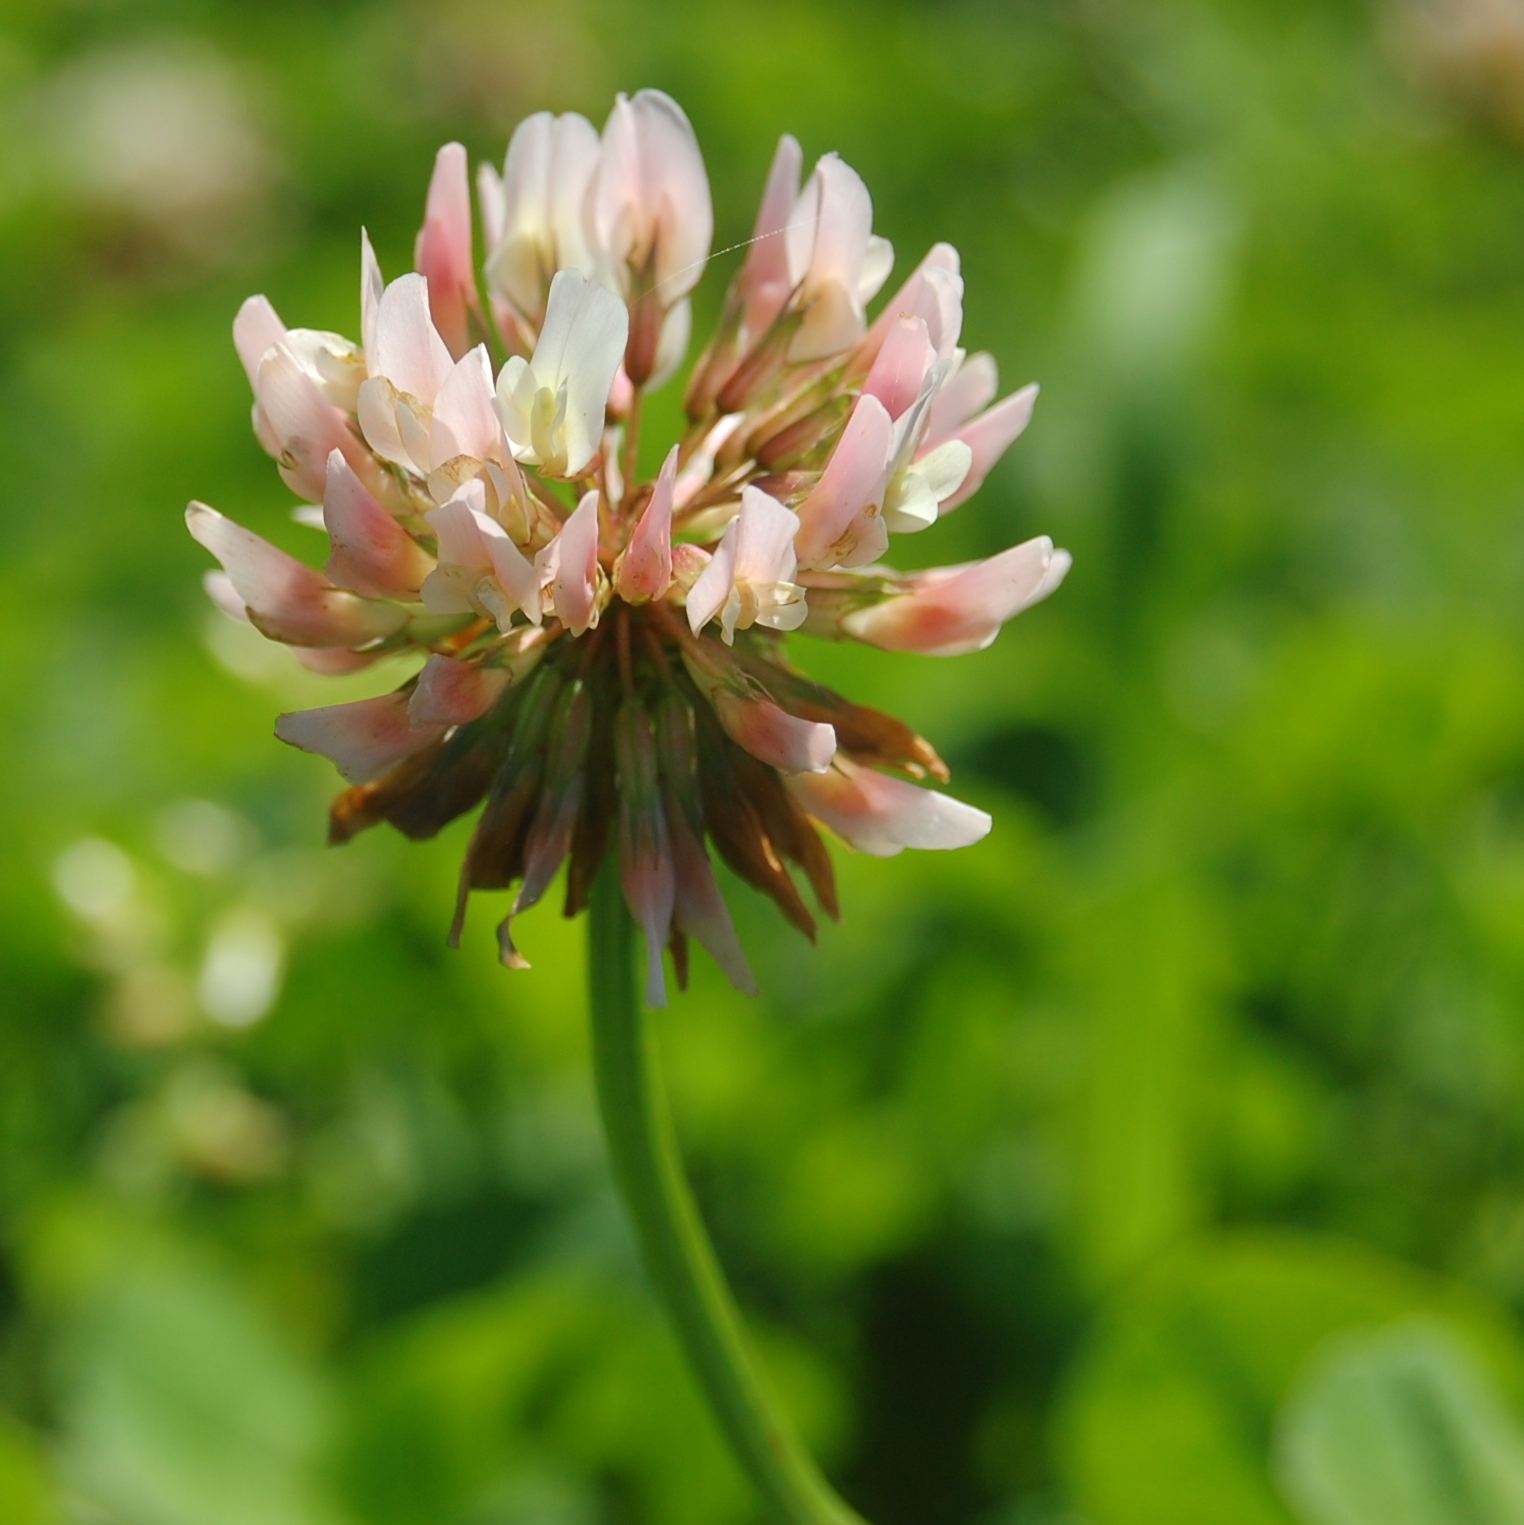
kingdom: Plantae
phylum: Tracheophyta
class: Magnoliopsida
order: Fabales
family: Fabaceae
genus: Trifolium
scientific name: Trifolium repens
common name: White clover
